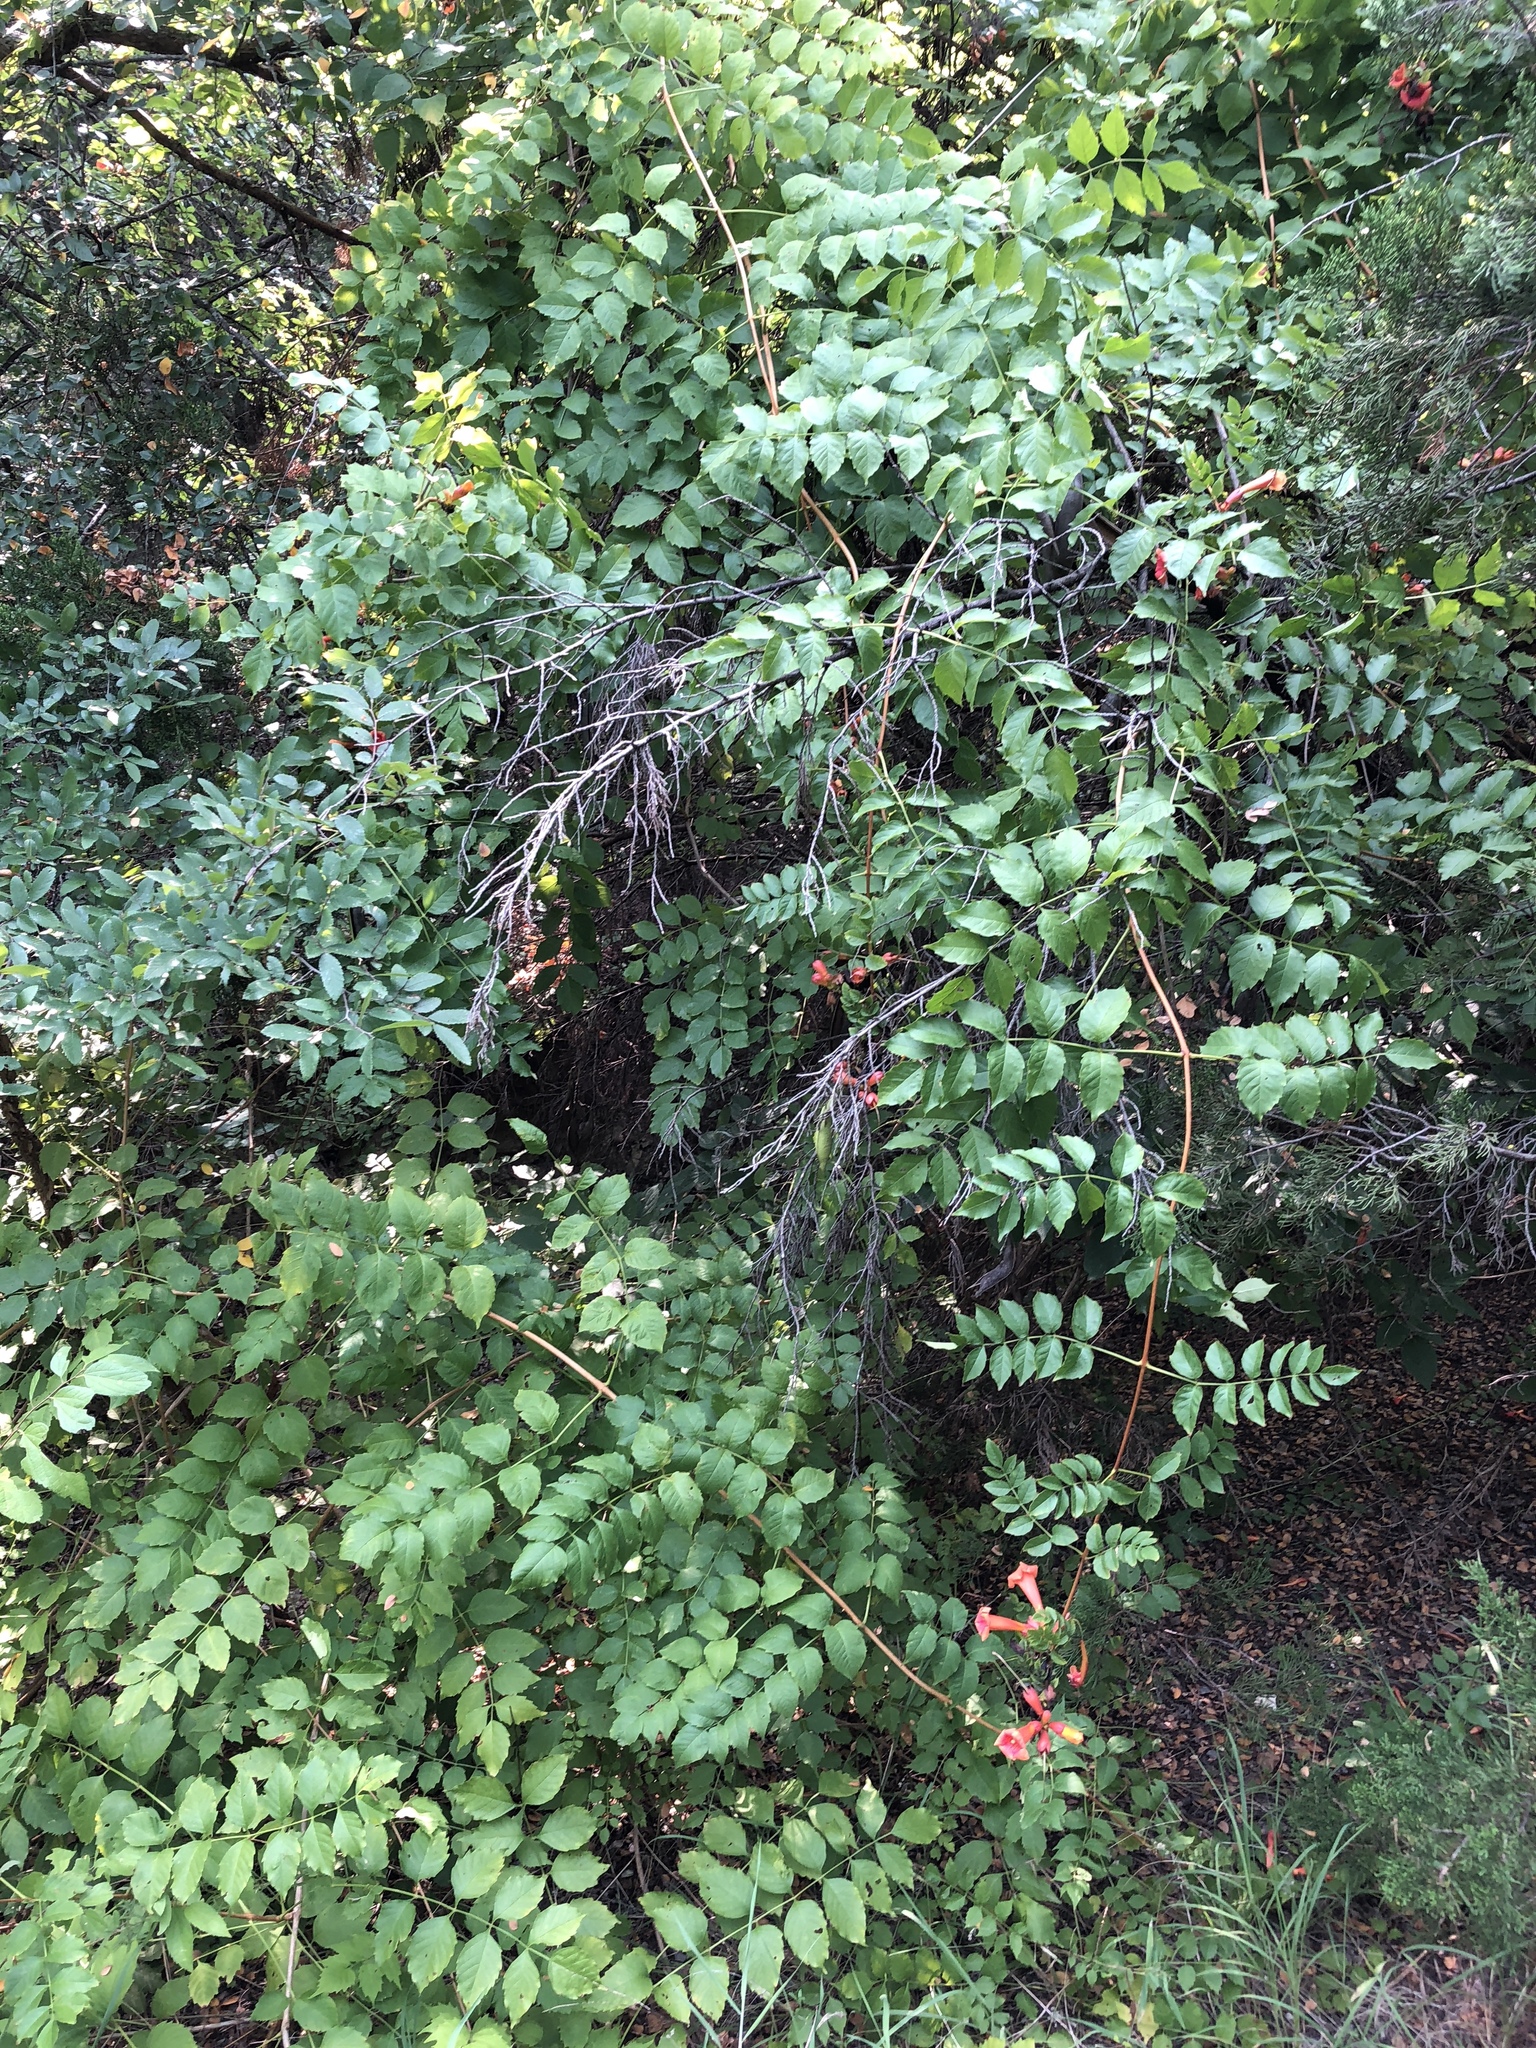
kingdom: Plantae
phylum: Tracheophyta
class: Magnoliopsida
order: Lamiales
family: Bignoniaceae
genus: Campsis
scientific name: Campsis radicans
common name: Trumpet-creeper
